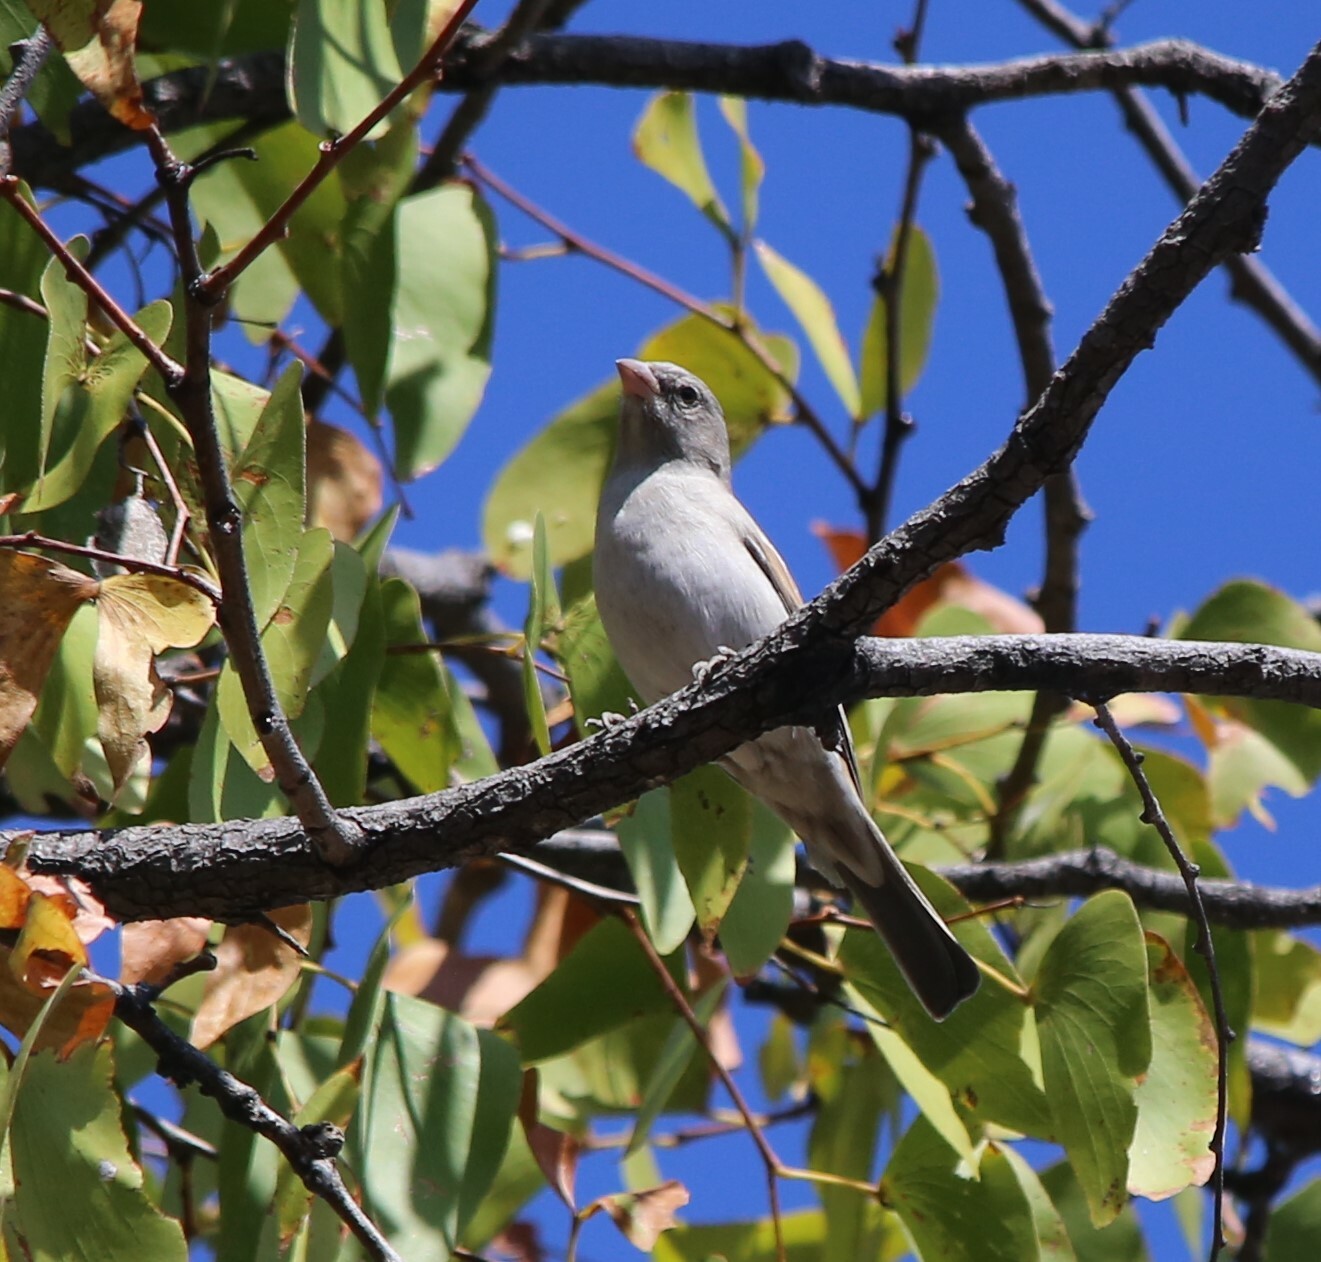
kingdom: Animalia
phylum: Chordata
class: Aves
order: Passeriformes
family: Passeridae
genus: Passer
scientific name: Passer diffusus
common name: Southern grey-headed sparrow
